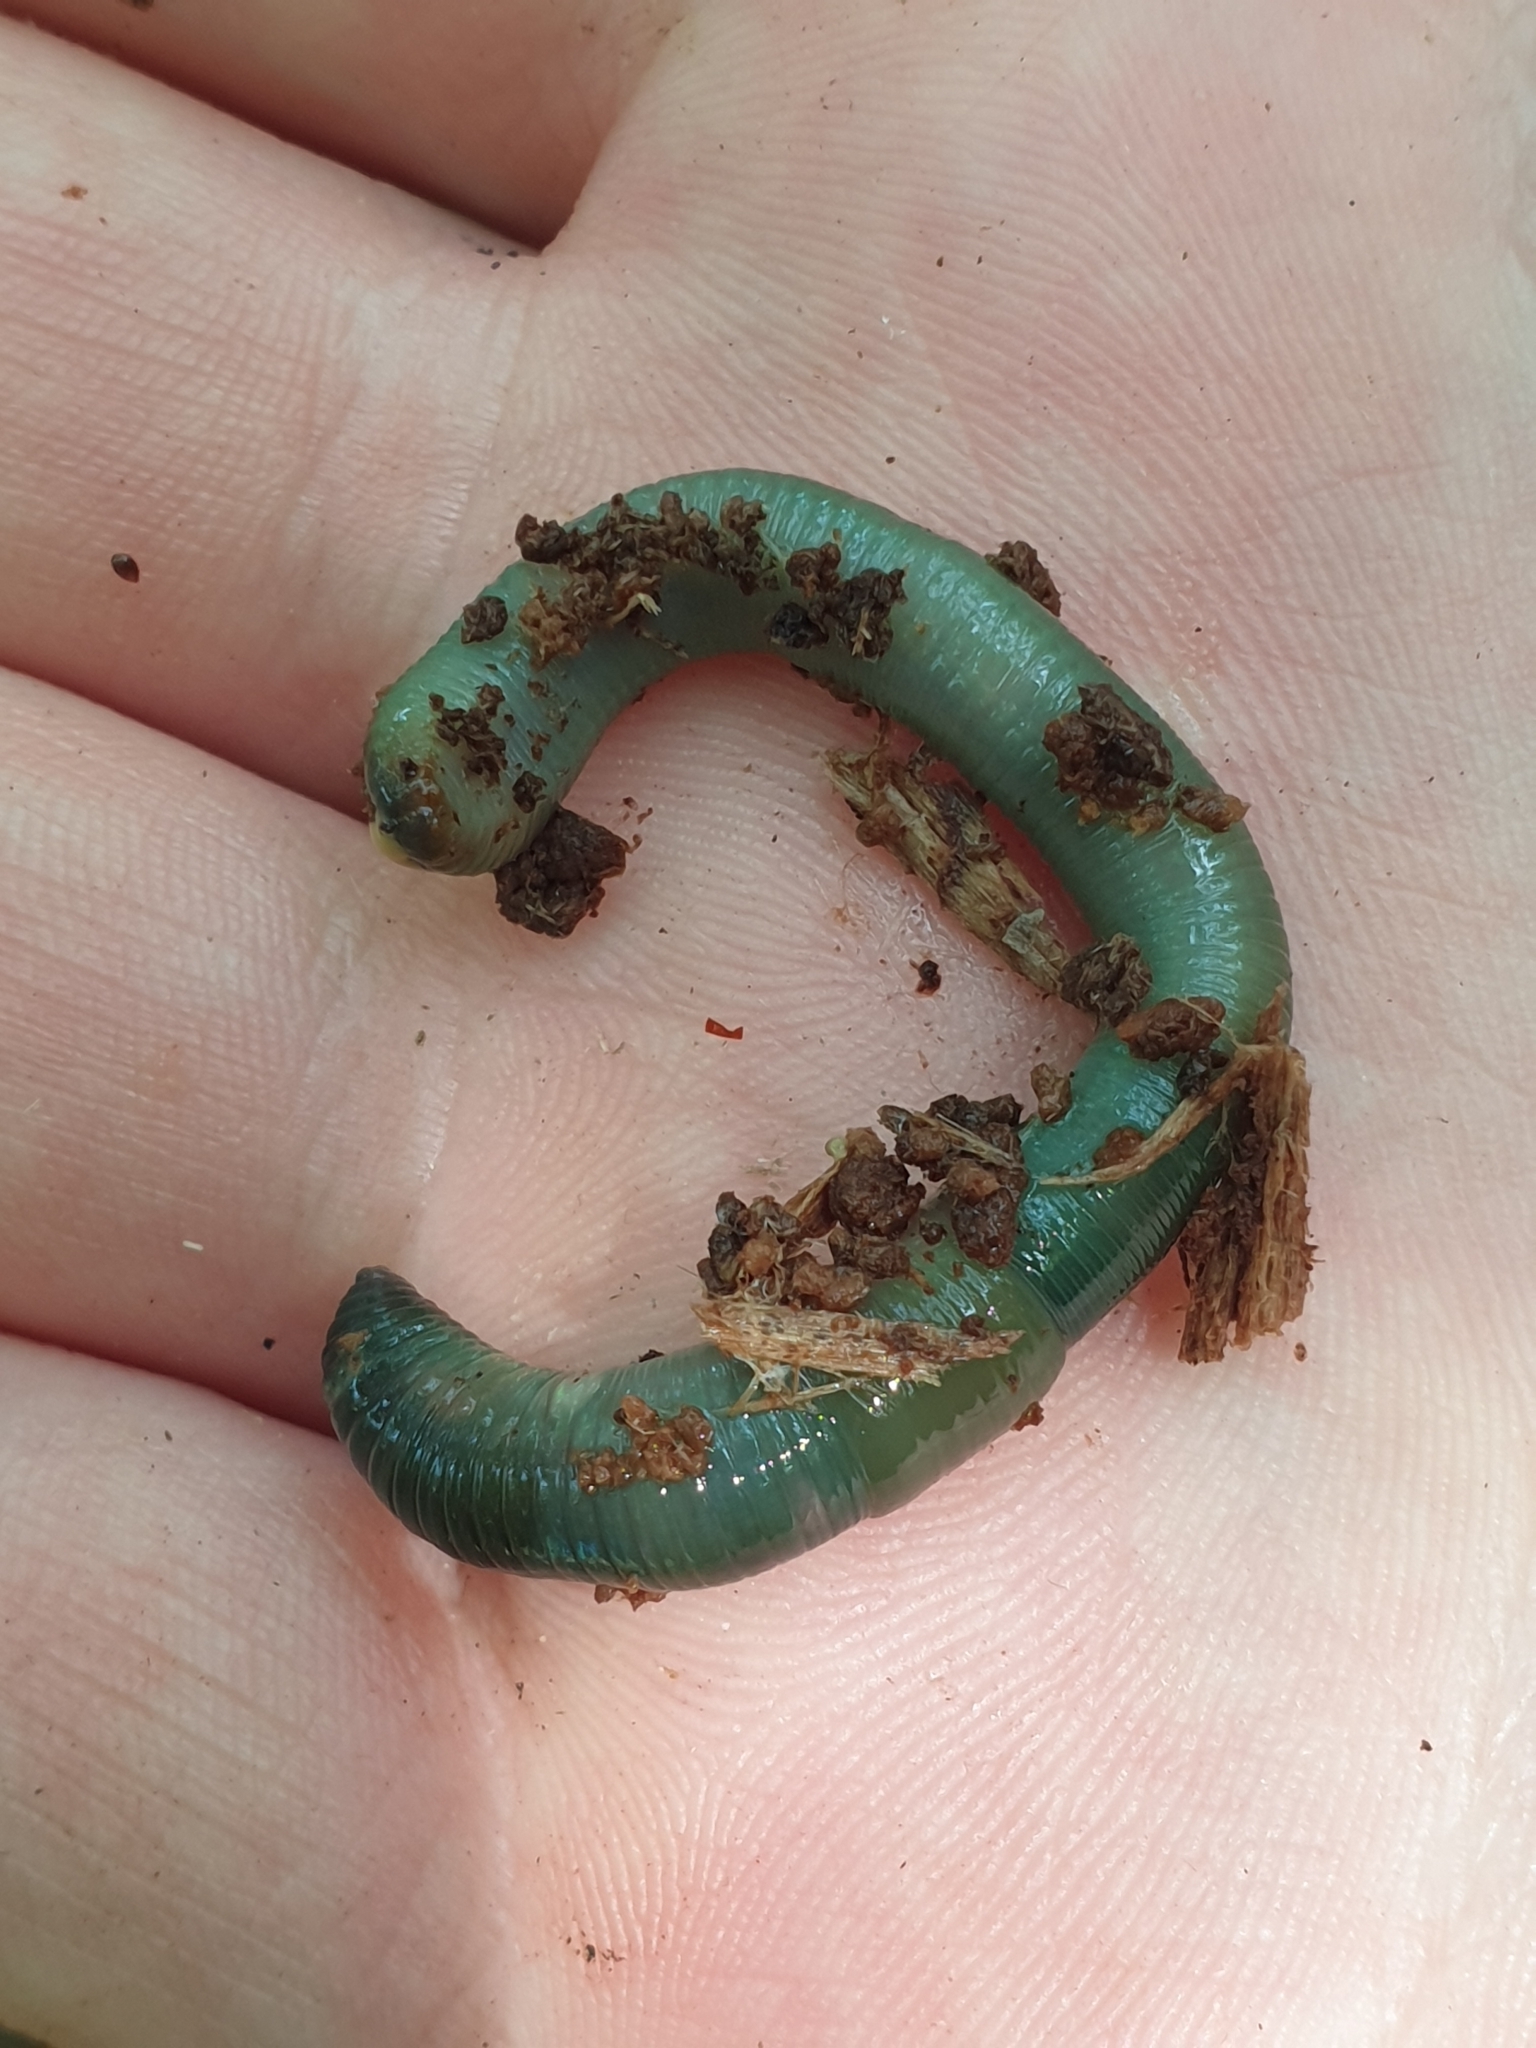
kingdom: Animalia
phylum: Annelida
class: Clitellata
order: Crassiclitellata
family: Lumbricidae
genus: Aporrectodea
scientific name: Aporrectodea smaragdina
